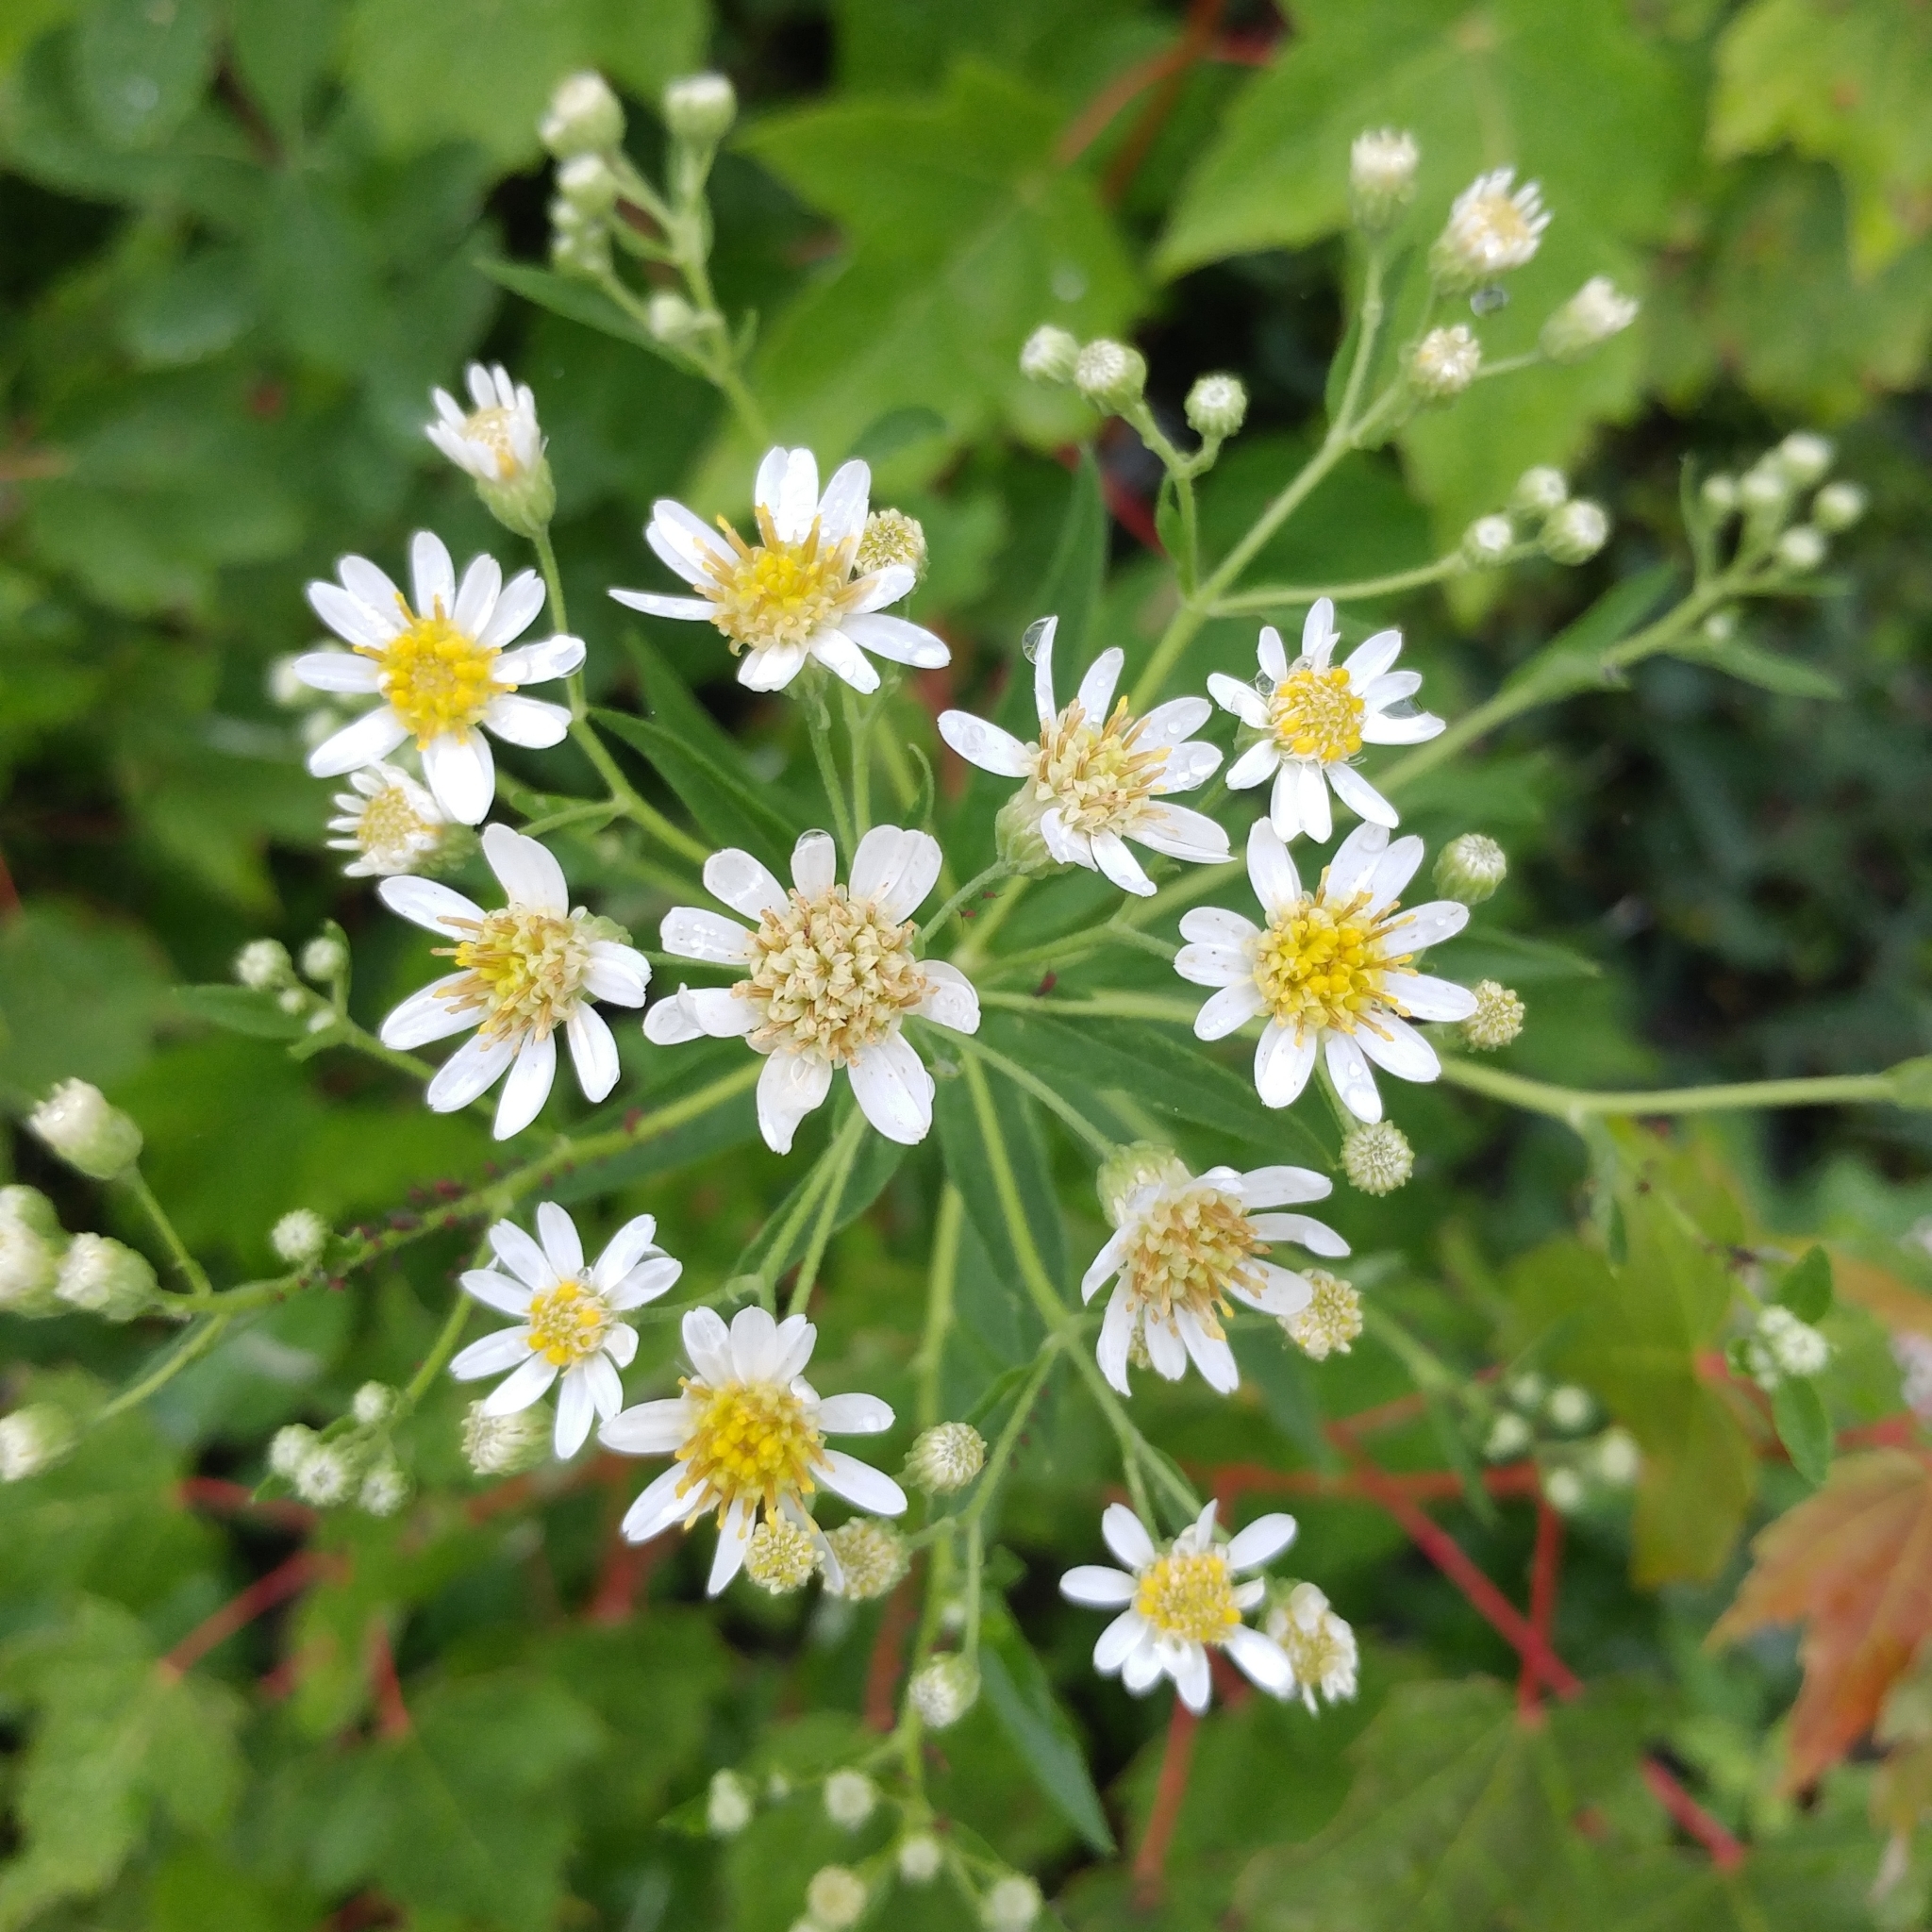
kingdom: Plantae
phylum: Tracheophyta
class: Magnoliopsida
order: Asterales
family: Asteraceae
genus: Doellingeria
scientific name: Doellingeria umbellata
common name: Flat-top white aster
